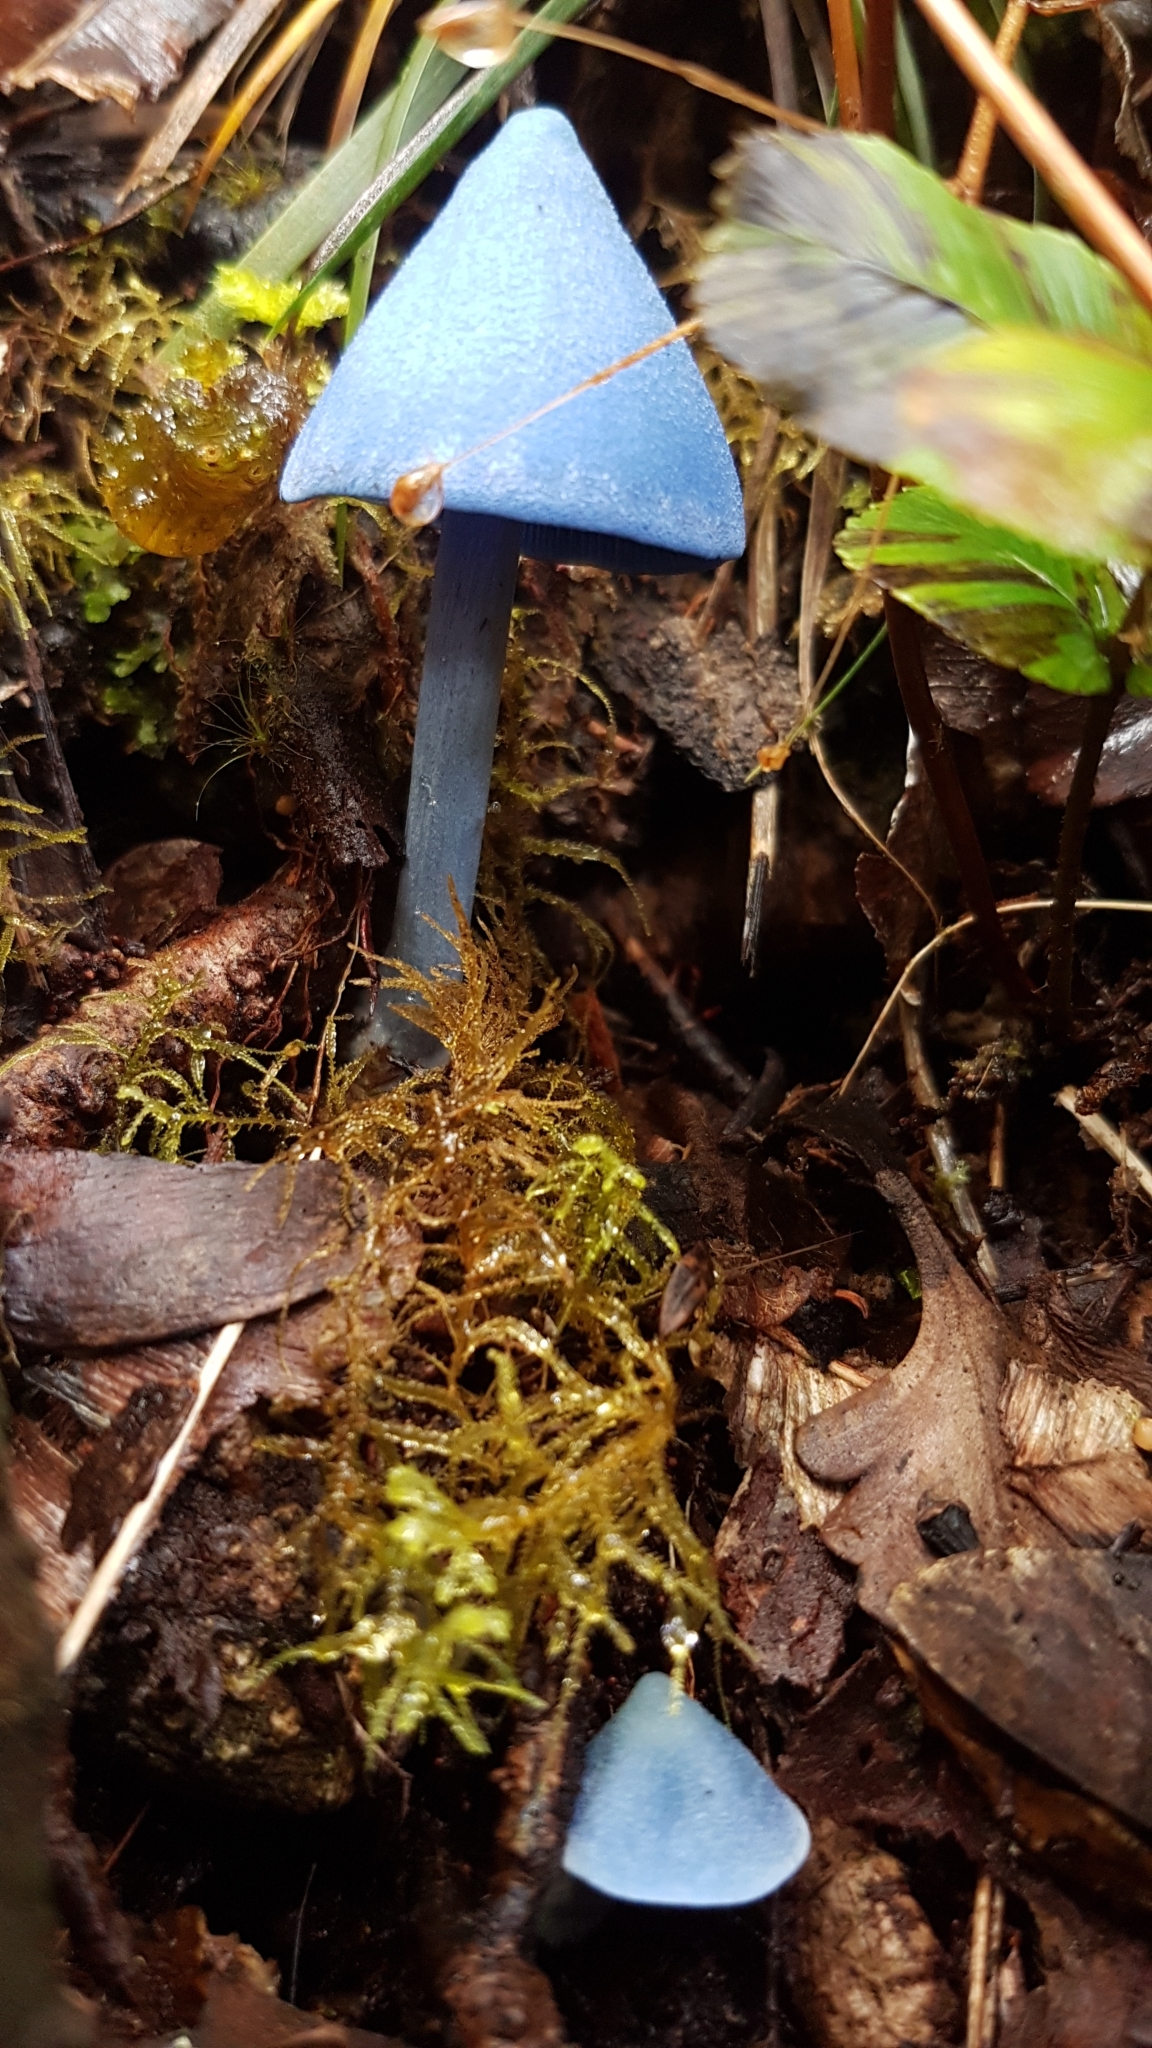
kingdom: Fungi
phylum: Basidiomycota
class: Agaricomycetes
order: Agaricales
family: Entolomataceae
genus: Entoloma
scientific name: Entoloma hochstetteri
